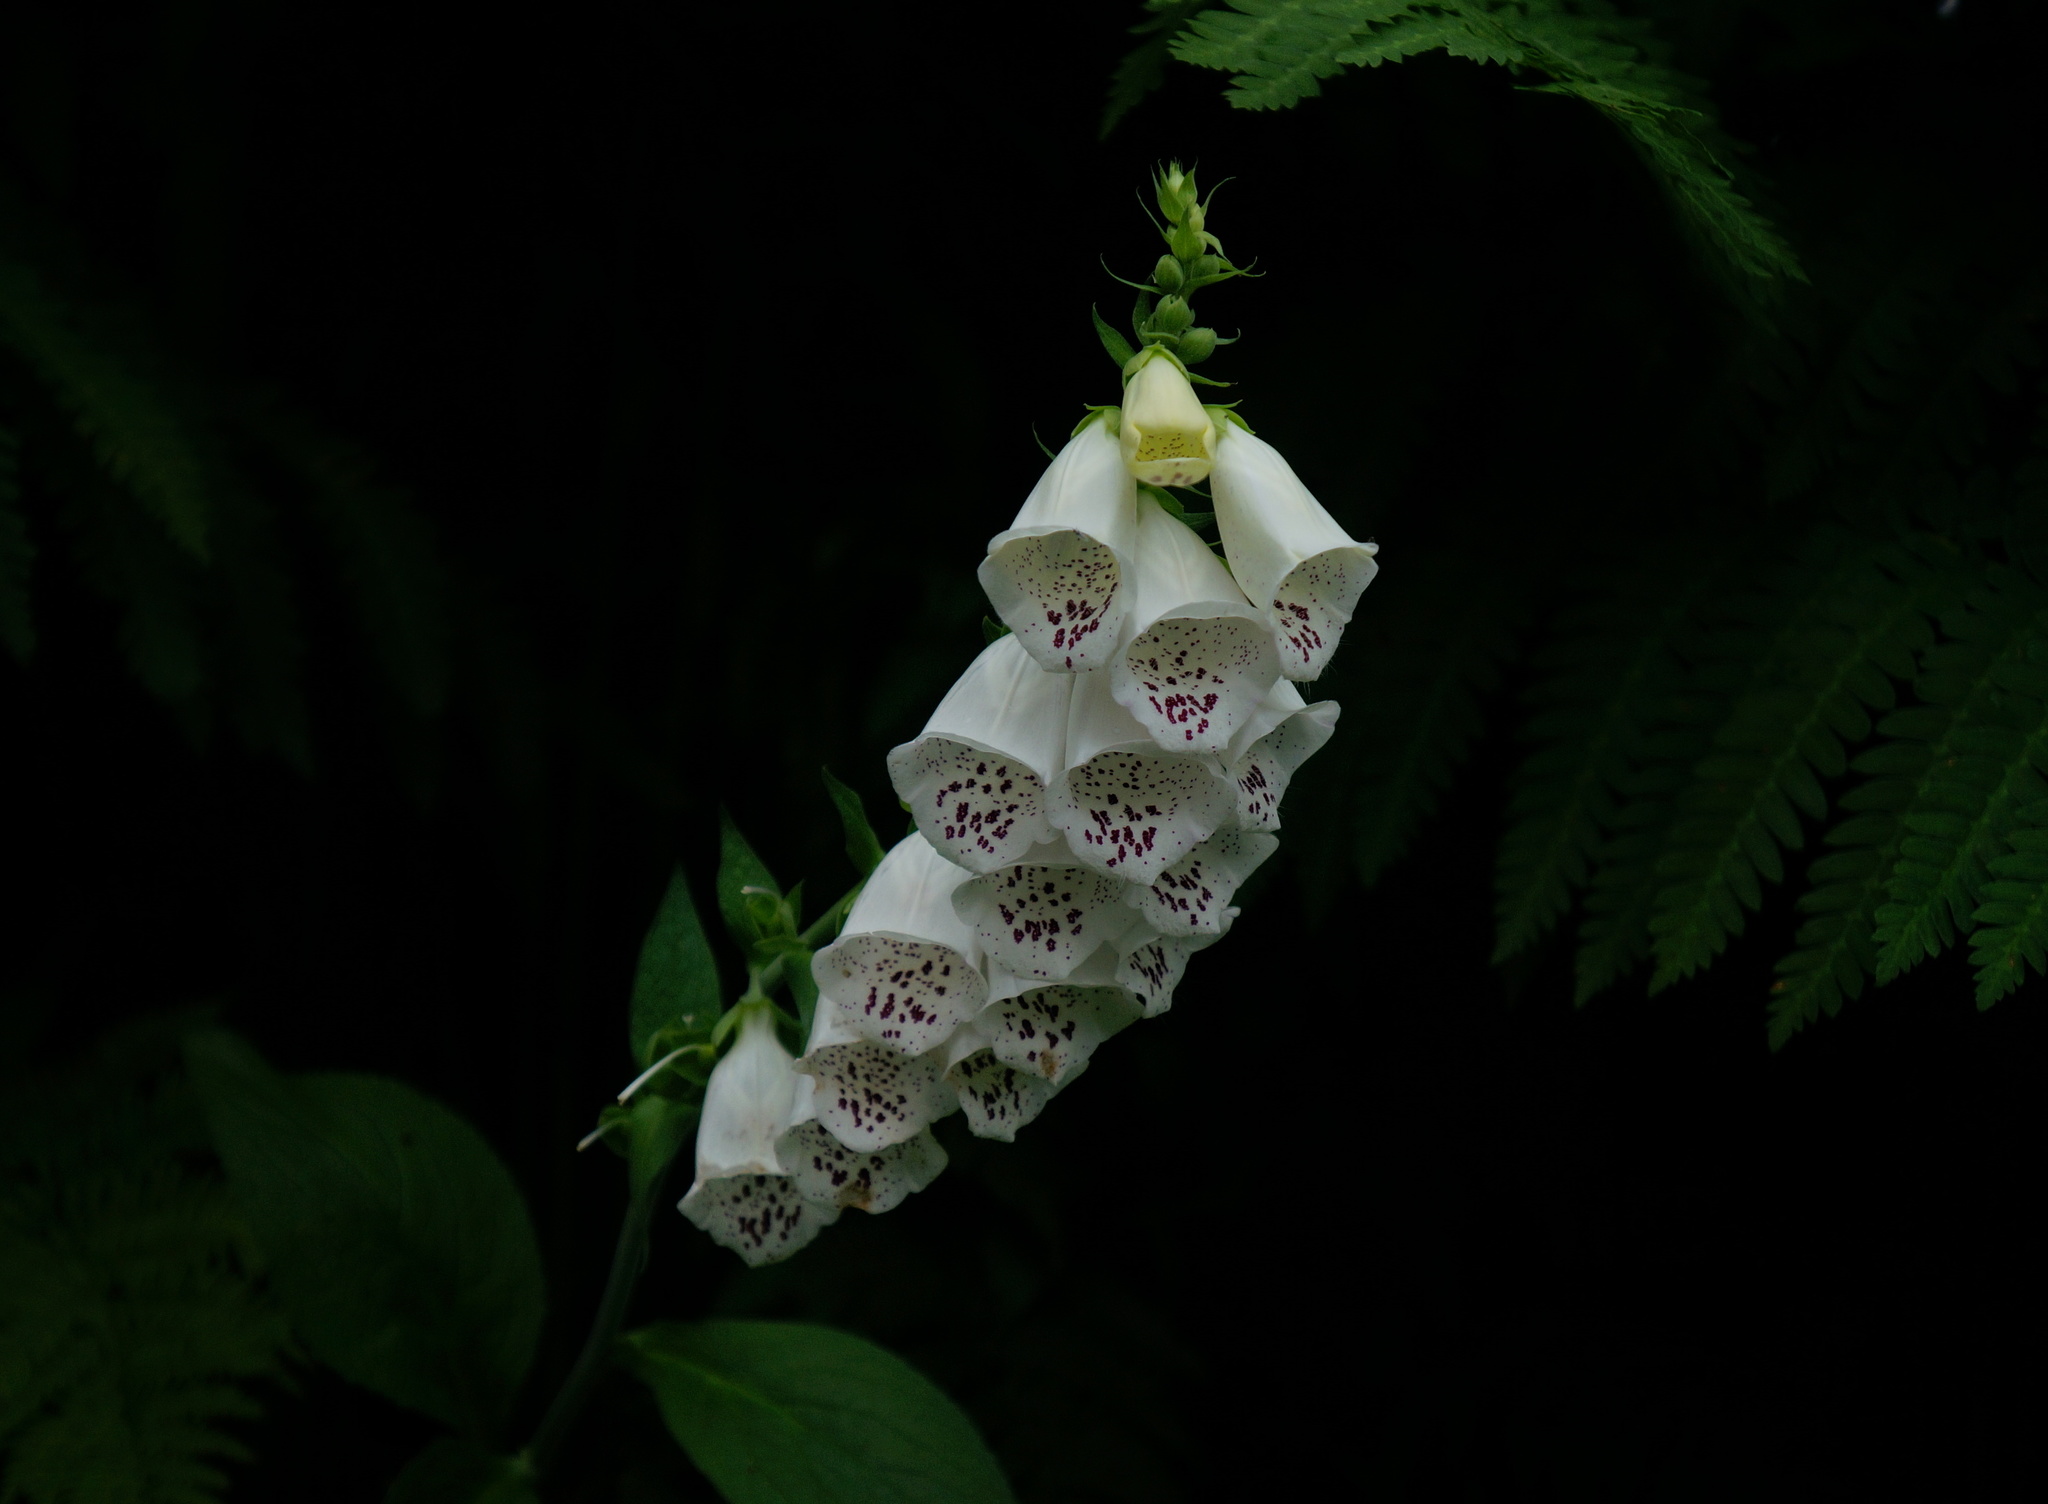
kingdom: Plantae
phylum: Tracheophyta
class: Magnoliopsida
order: Lamiales
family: Plantaginaceae
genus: Digitalis
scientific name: Digitalis purpurea
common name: Foxglove
